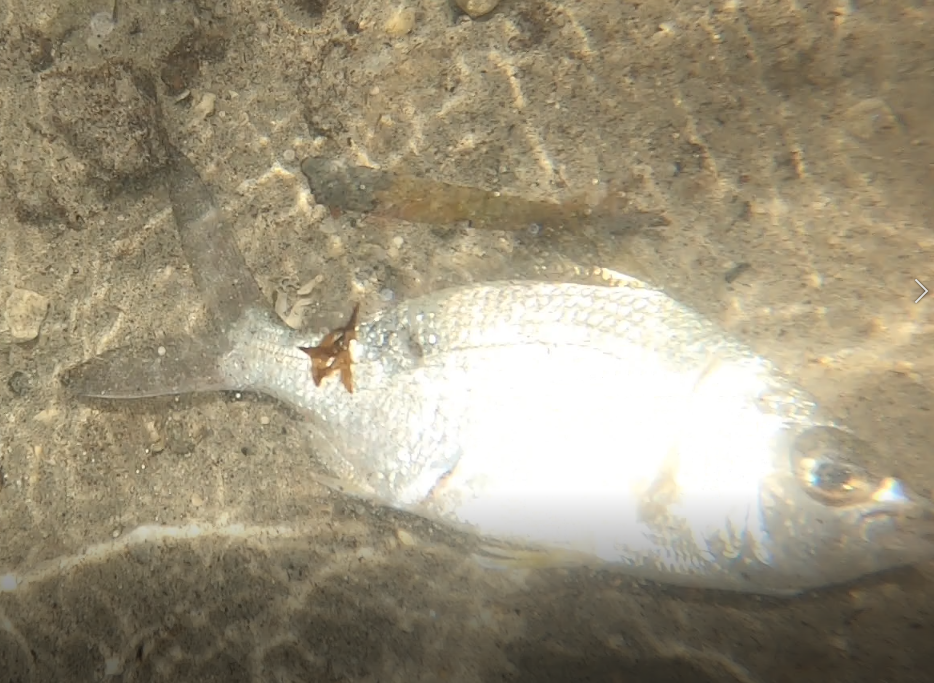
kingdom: Animalia
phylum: Chordata
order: Perciformes
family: Gerreidae
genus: Gerres
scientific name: Gerres cinereus
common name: Hedow
